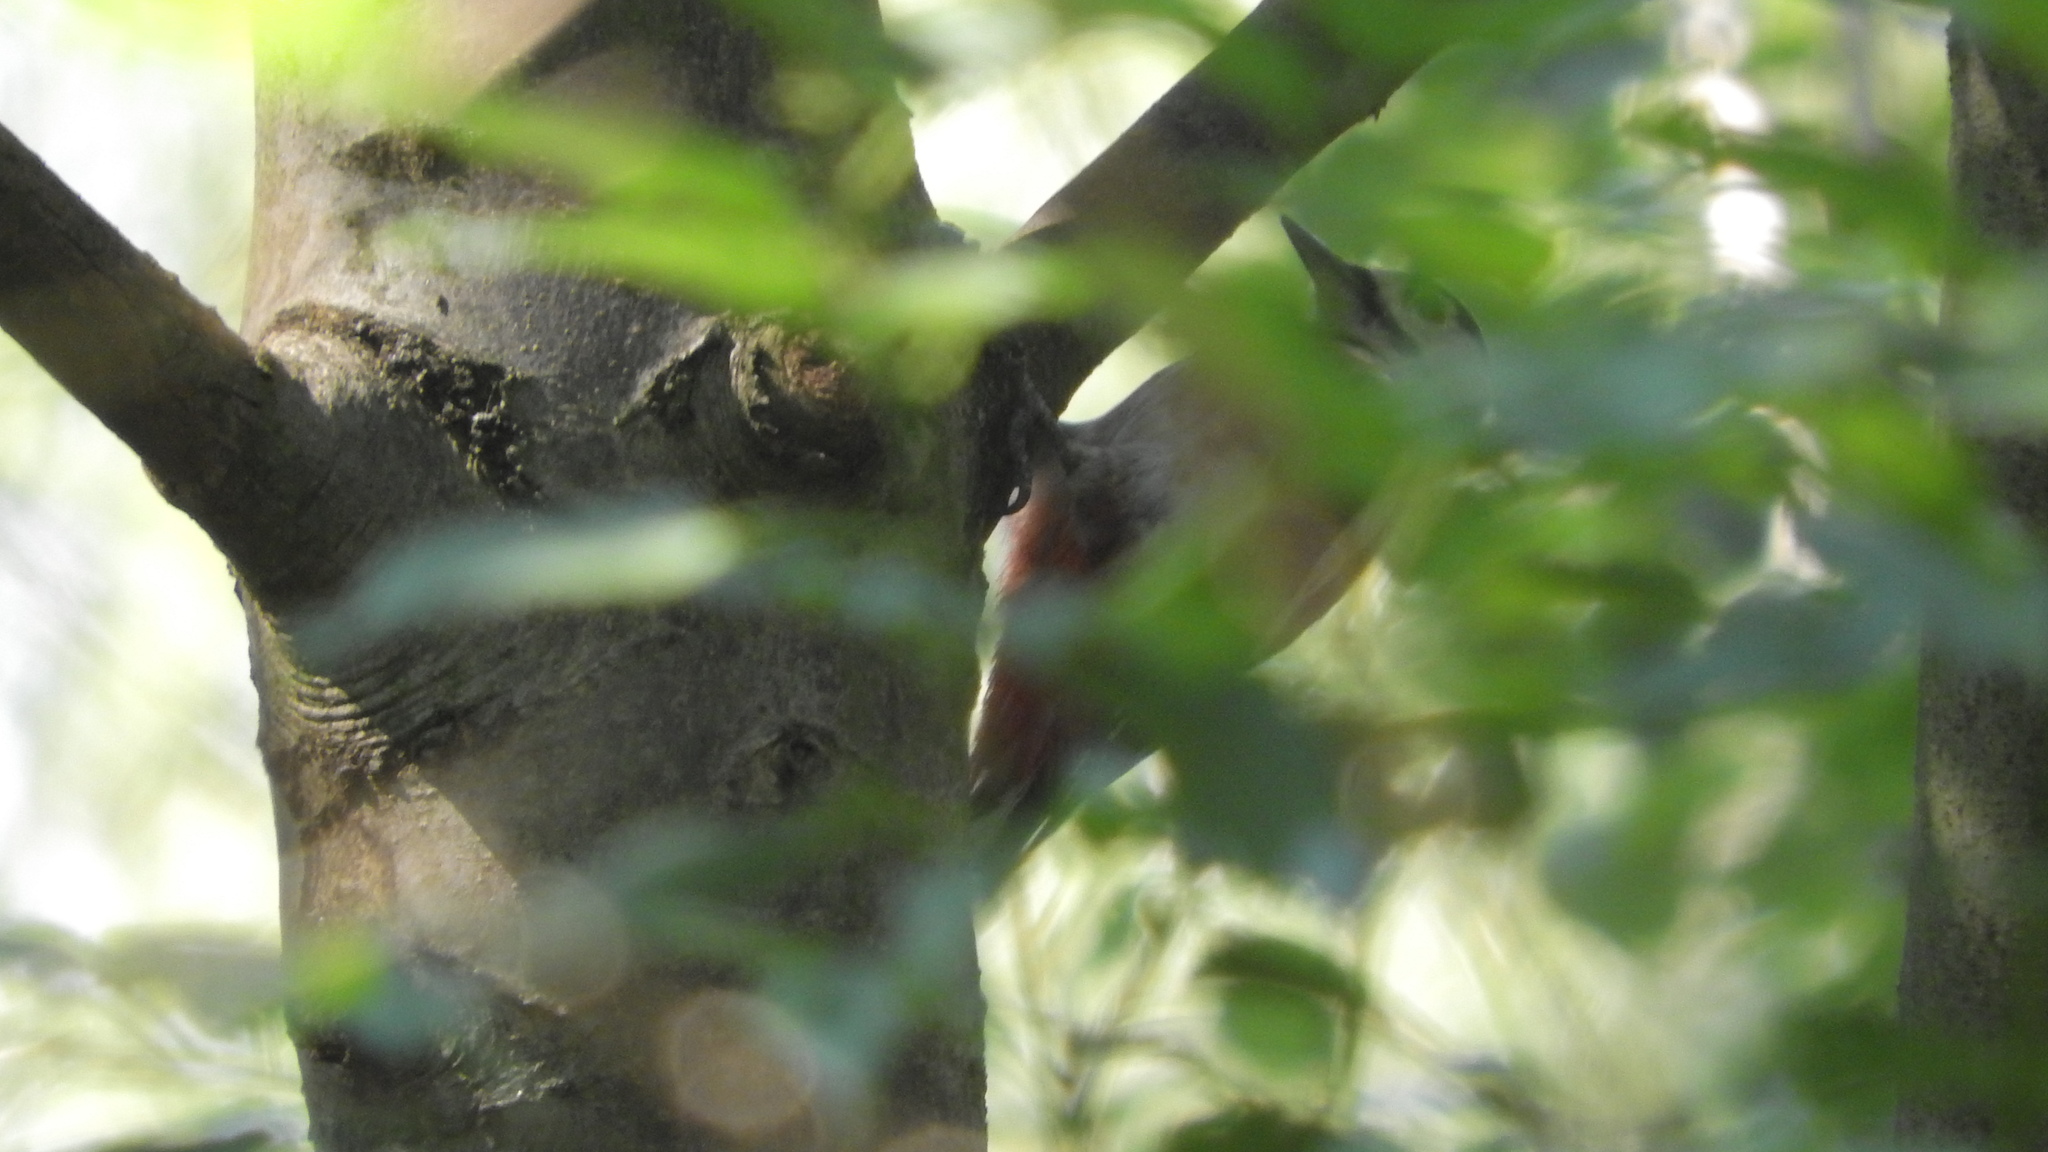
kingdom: Animalia
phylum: Chordata
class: Aves
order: Piciformes
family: Picidae
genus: Dendrocopos
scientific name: Dendrocopos major
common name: Great spotted woodpecker
